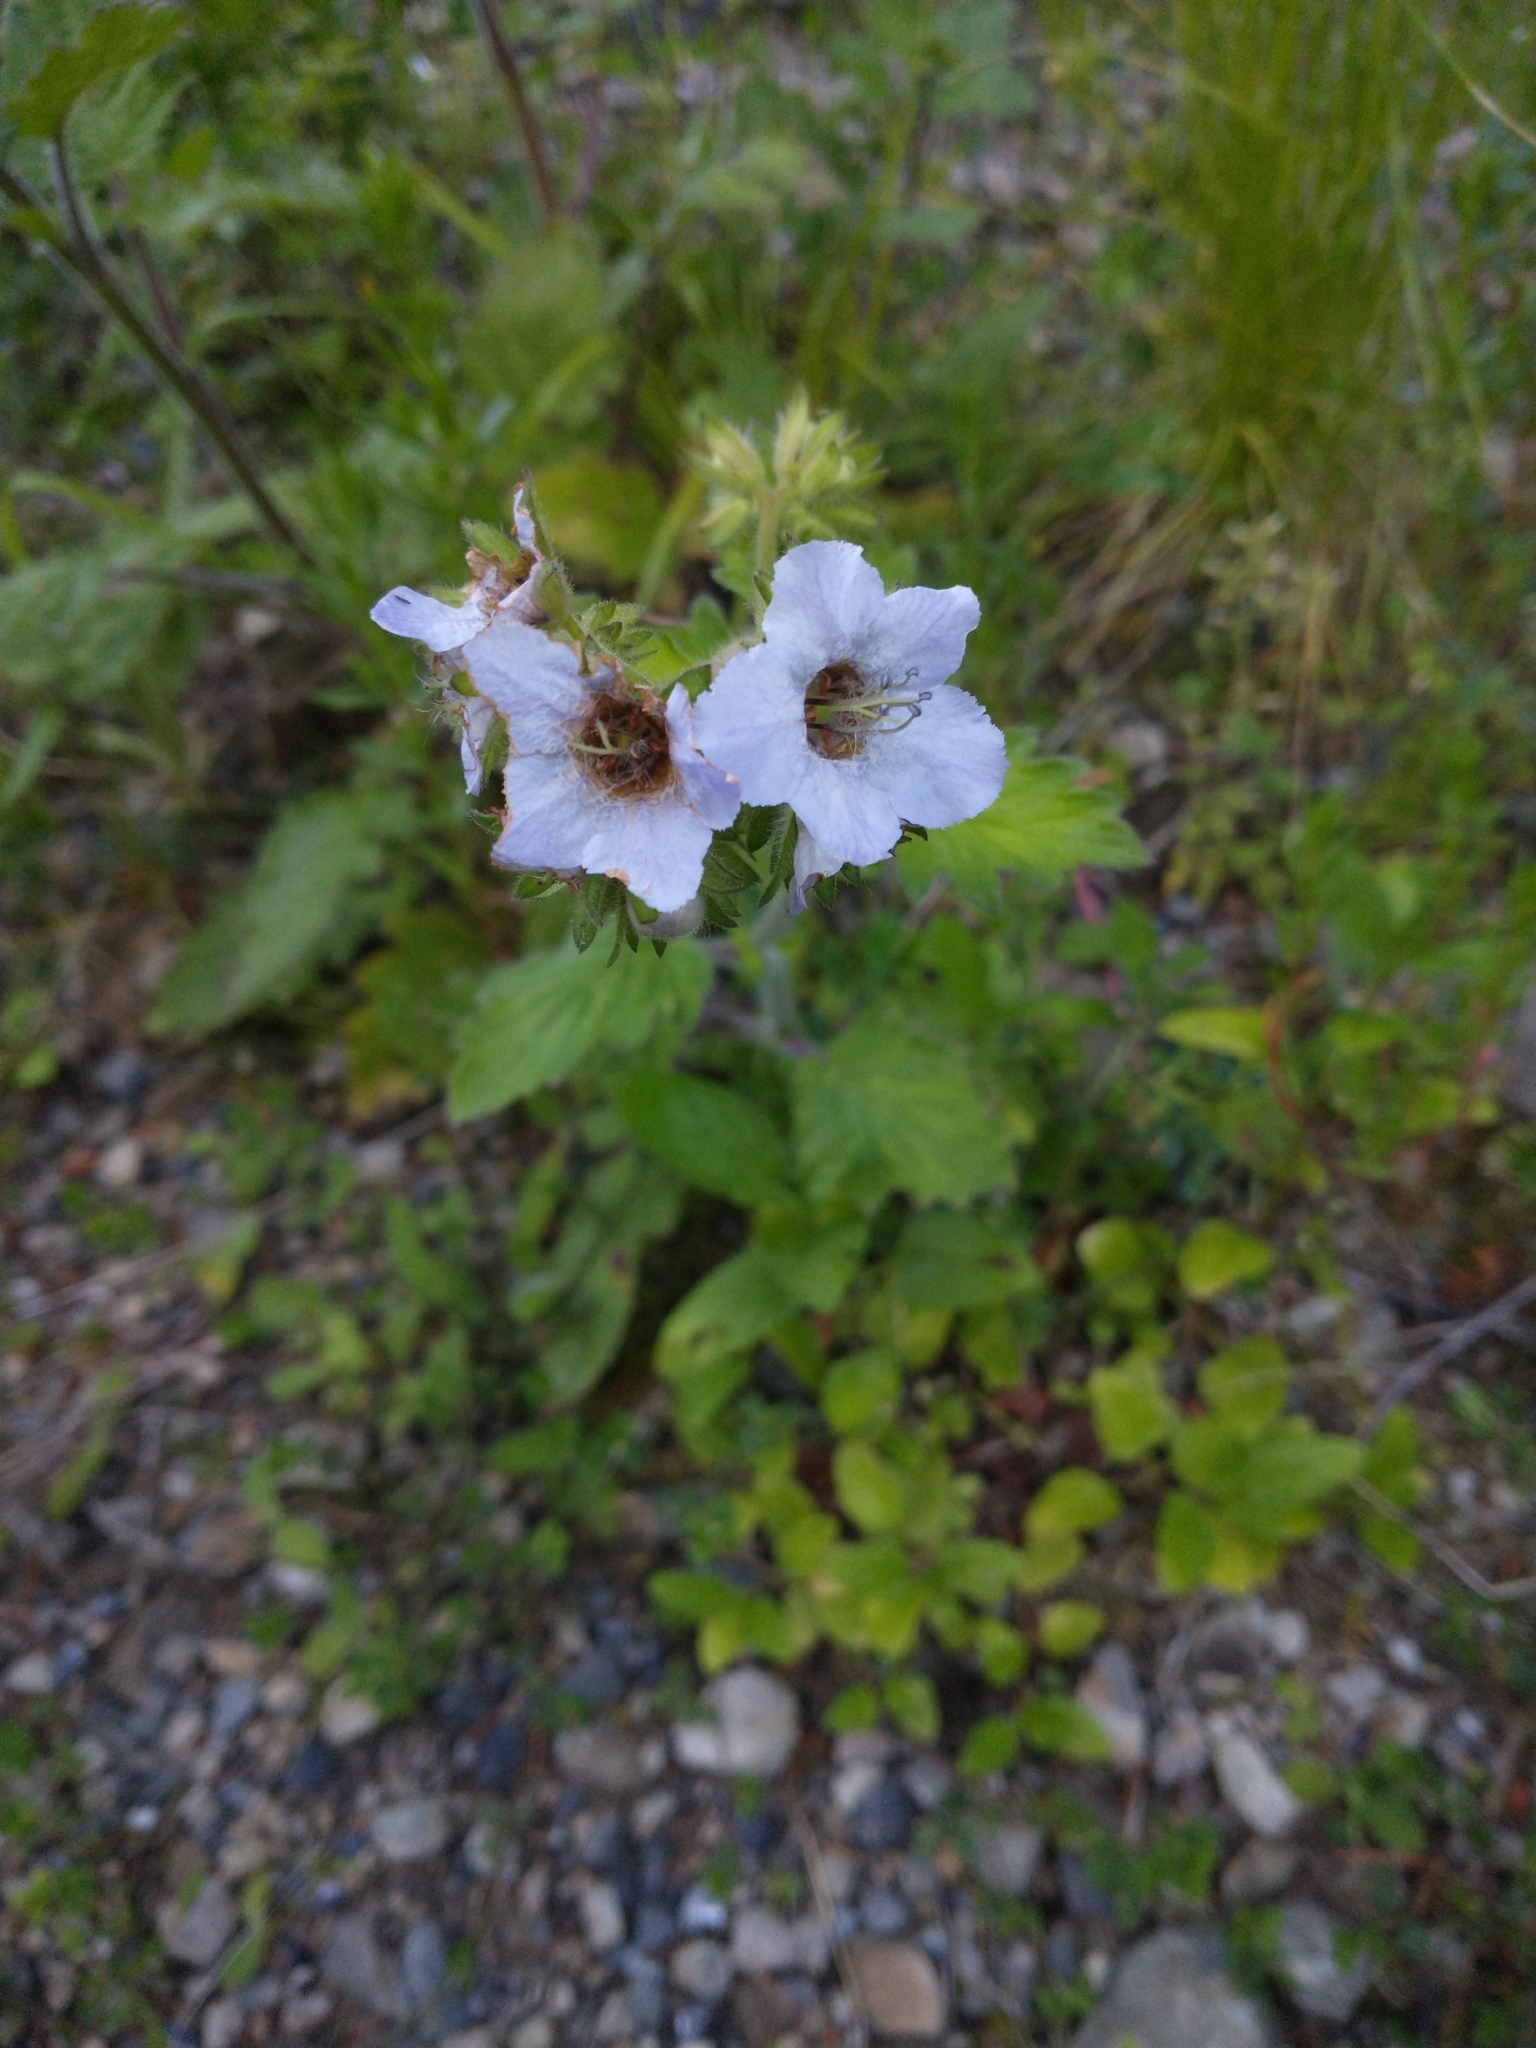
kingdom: Plantae
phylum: Tracheophyta
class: Magnoliopsida
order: Boraginales
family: Hydrophyllaceae
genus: Phacelia
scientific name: Phacelia bolanderi
